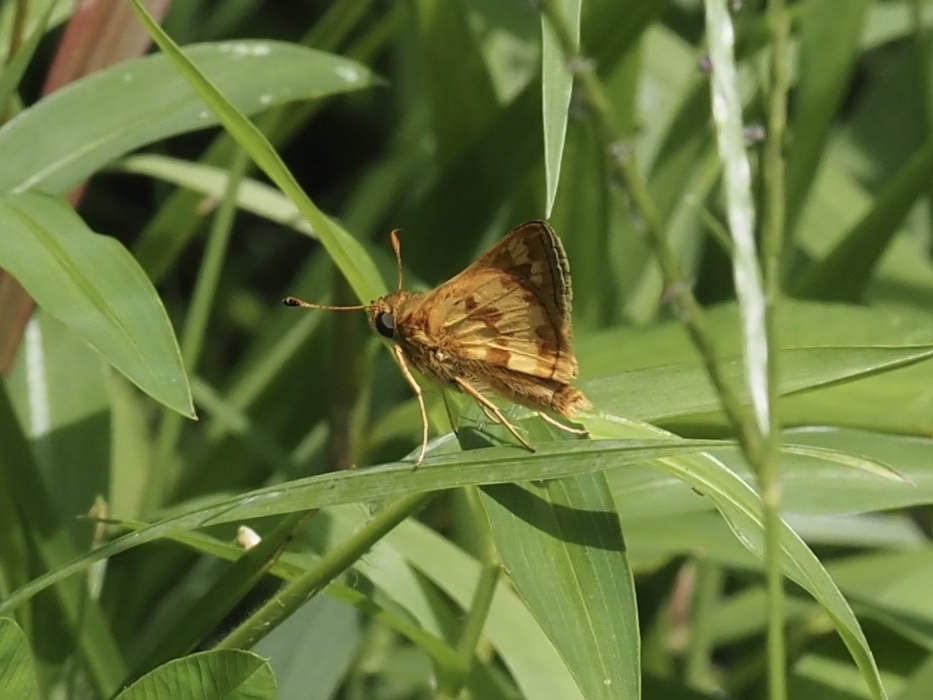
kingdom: Animalia
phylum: Arthropoda
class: Insecta
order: Lepidoptera
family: Hesperiidae
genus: Polites
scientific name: Polites coras
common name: Peck's skipper
